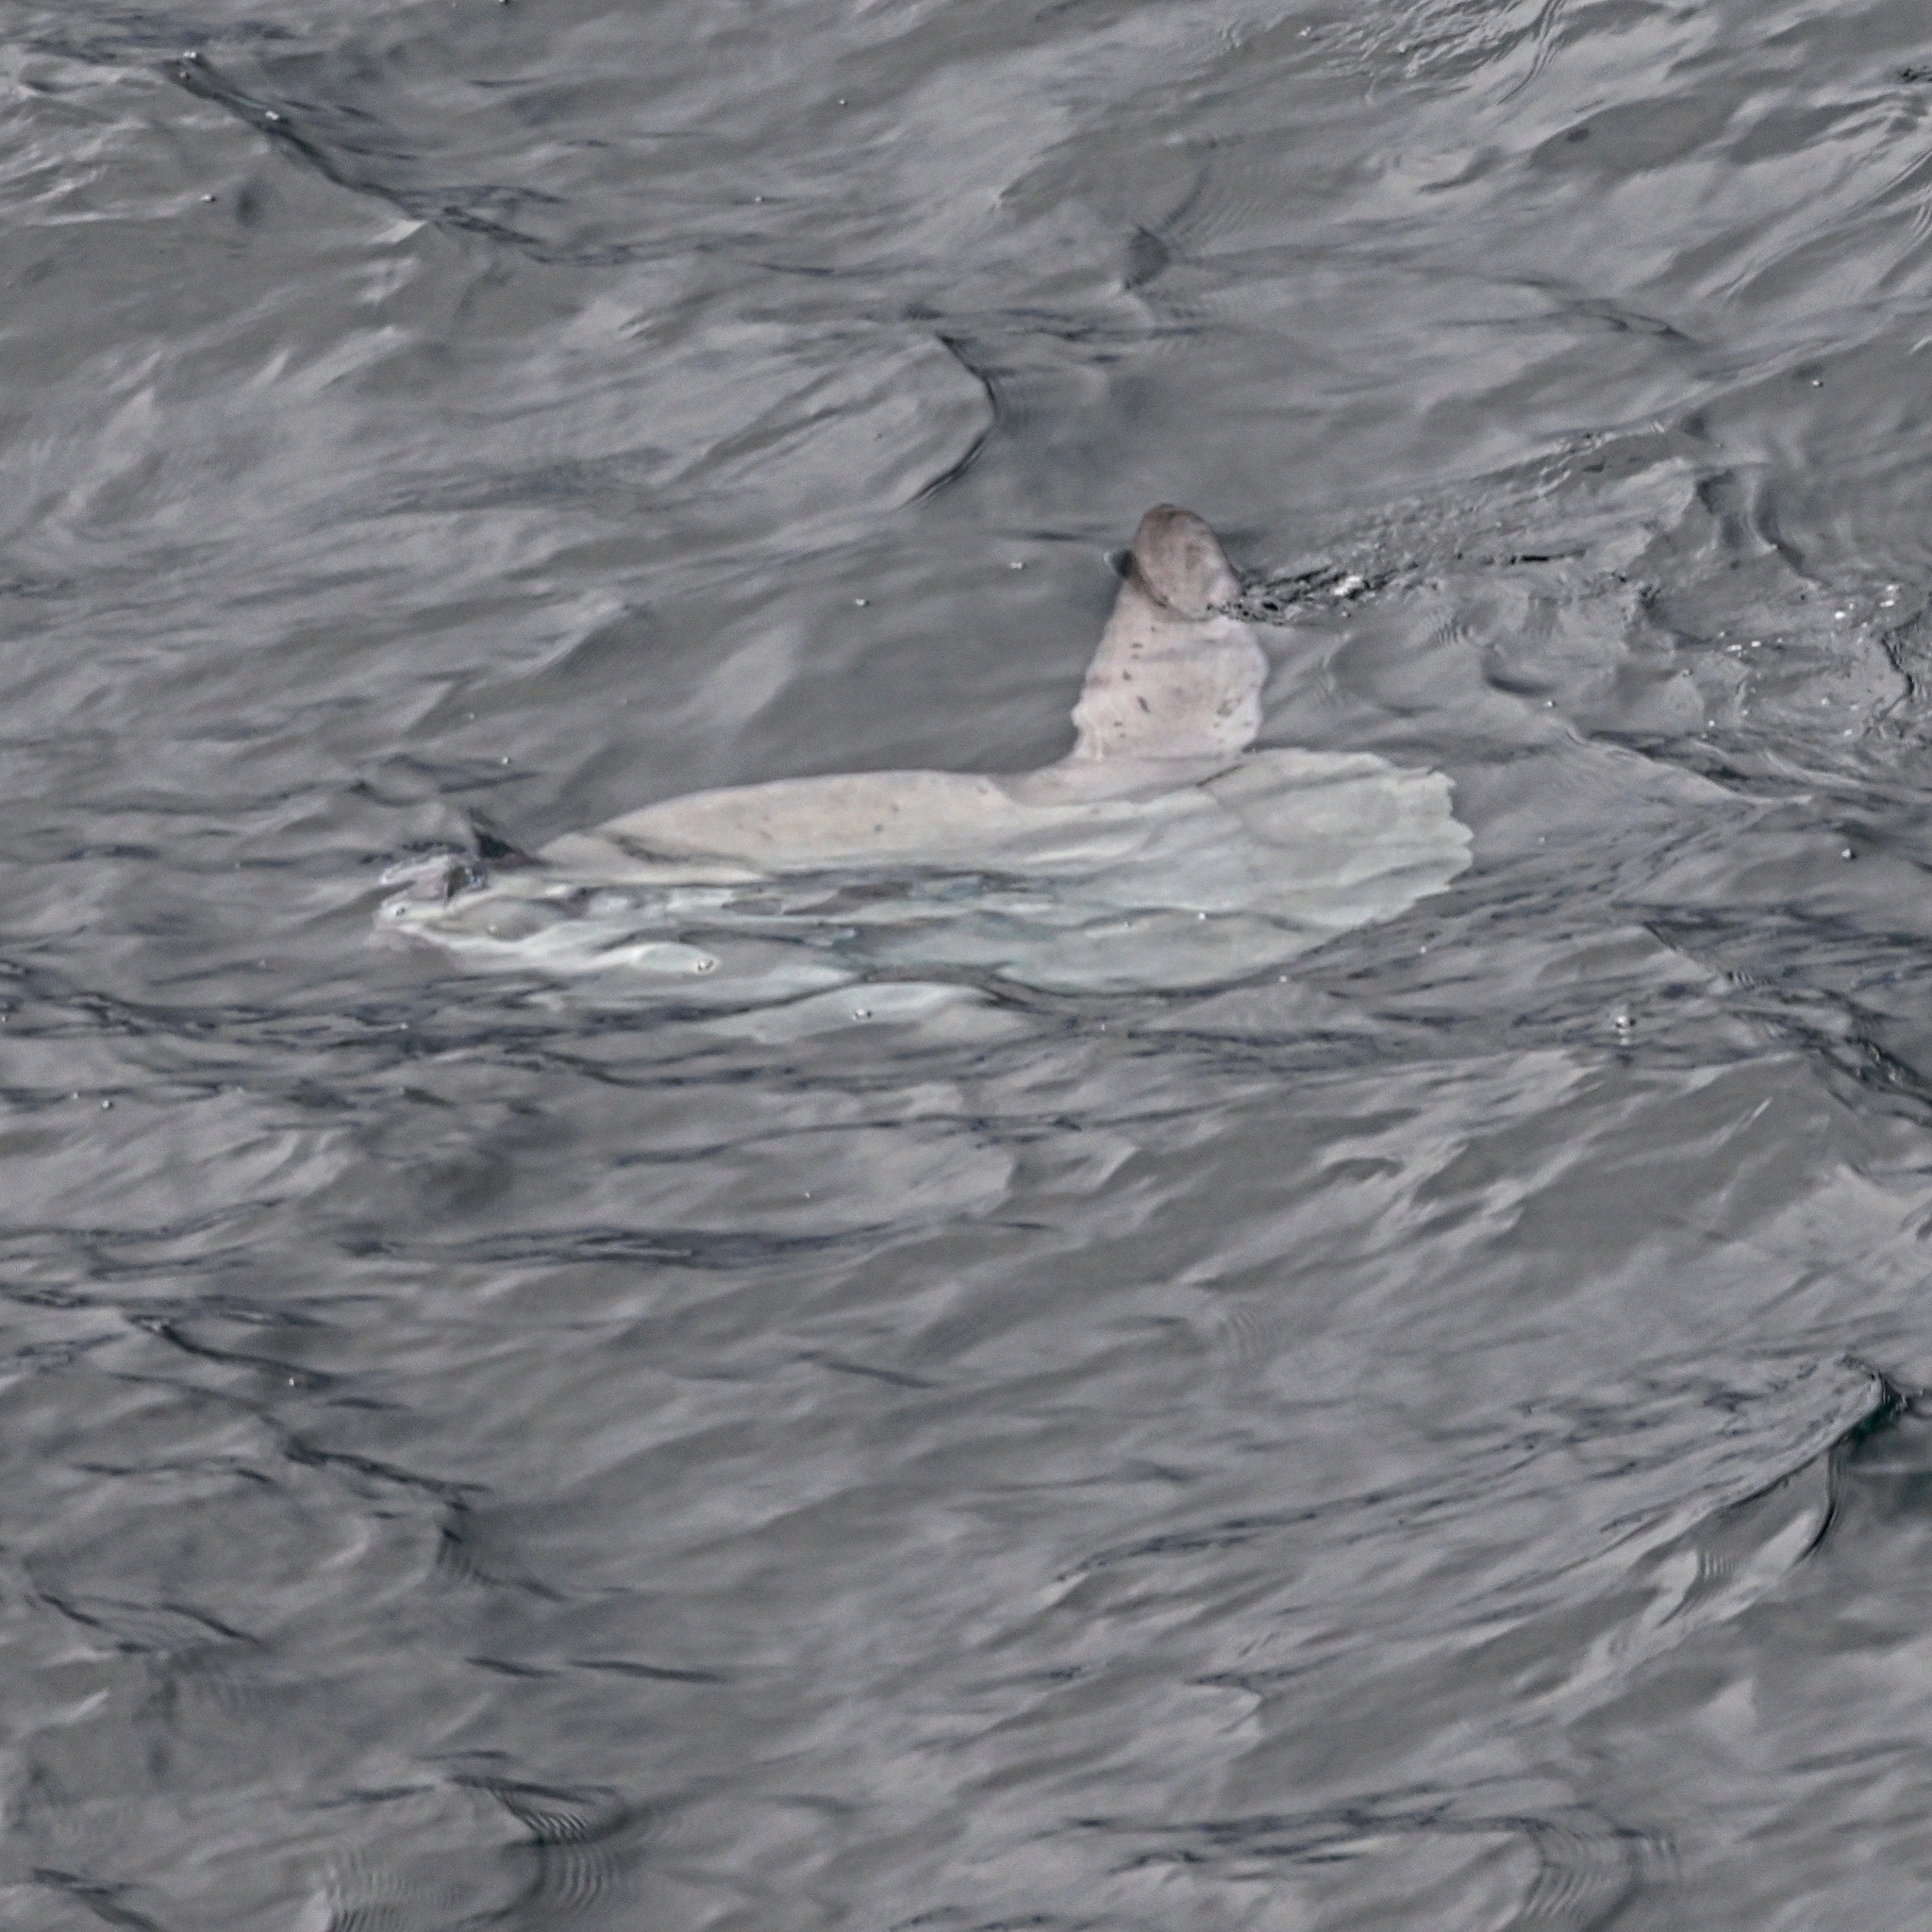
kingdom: Animalia
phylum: Chordata
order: Tetraodontiformes
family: Molidae
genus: Mola
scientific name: Mola mola
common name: Ocean sunfish
